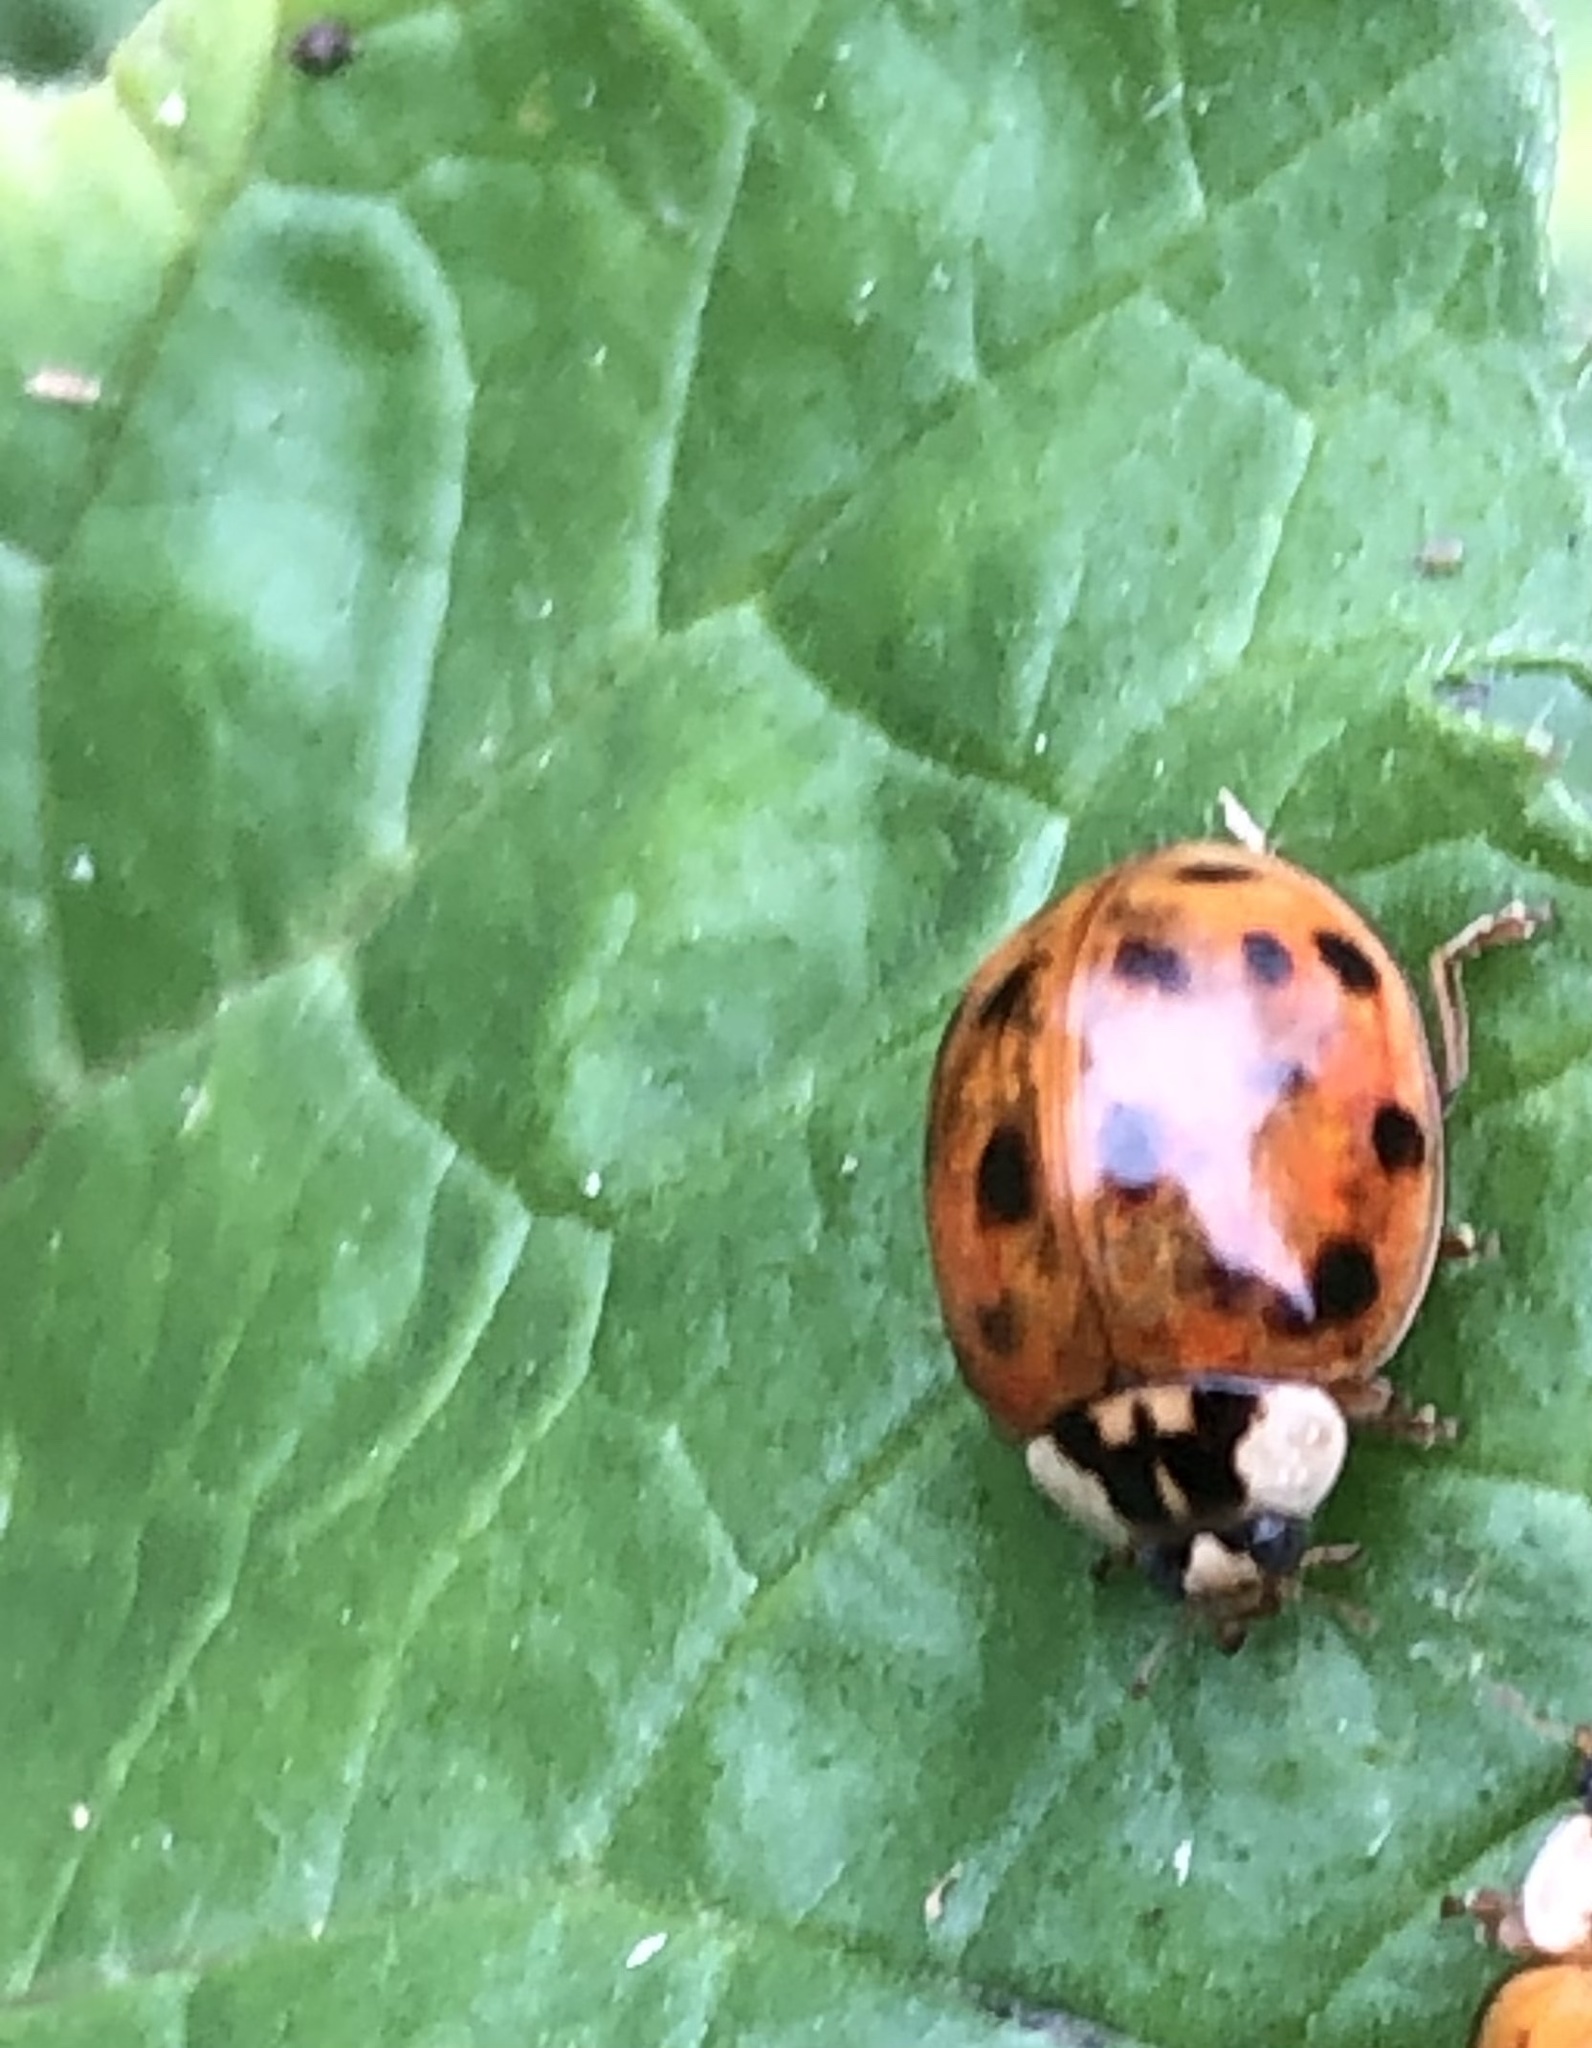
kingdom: Animalia
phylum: Arthropoda
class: Insecta
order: Coleoptera
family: Coccinellidae
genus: Harmonia
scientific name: Harmonia axyridis
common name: Harlequin ladybird
